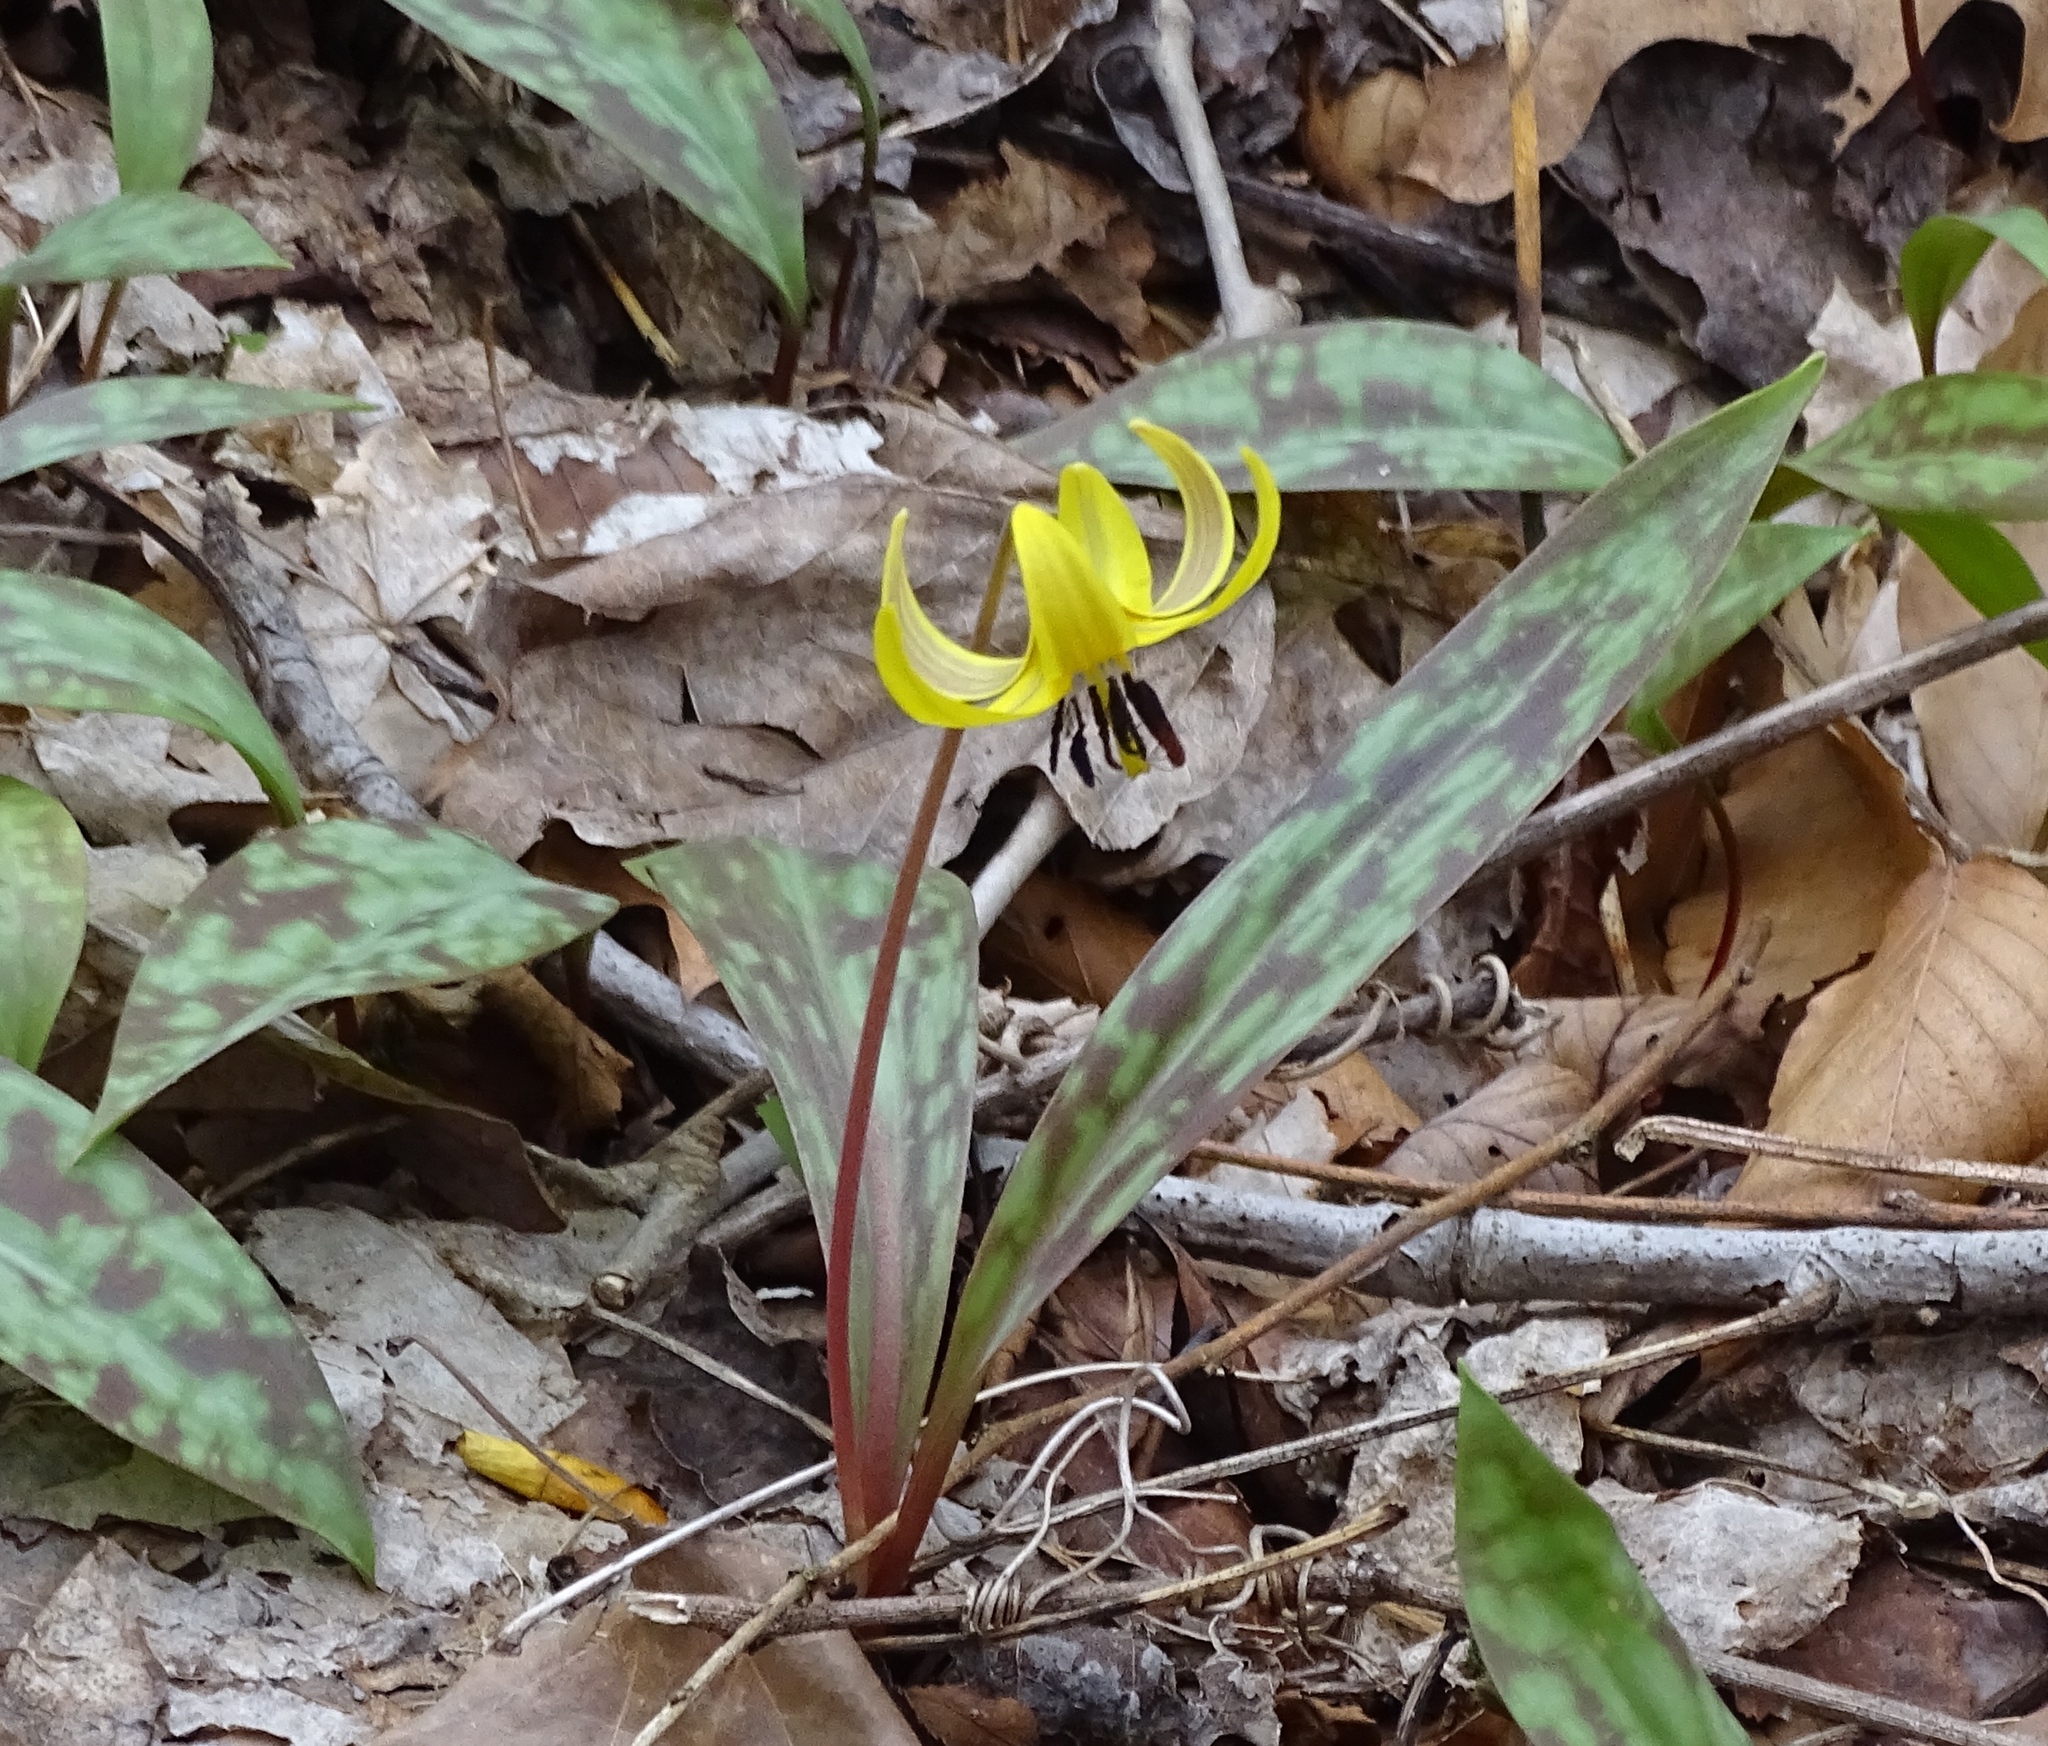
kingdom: Plantae
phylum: Tracheophyta
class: Liliopsida
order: Liliales
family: Liliaceae
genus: Erythronium
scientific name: Erythronium americanum
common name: Yellow adder's-tongue
